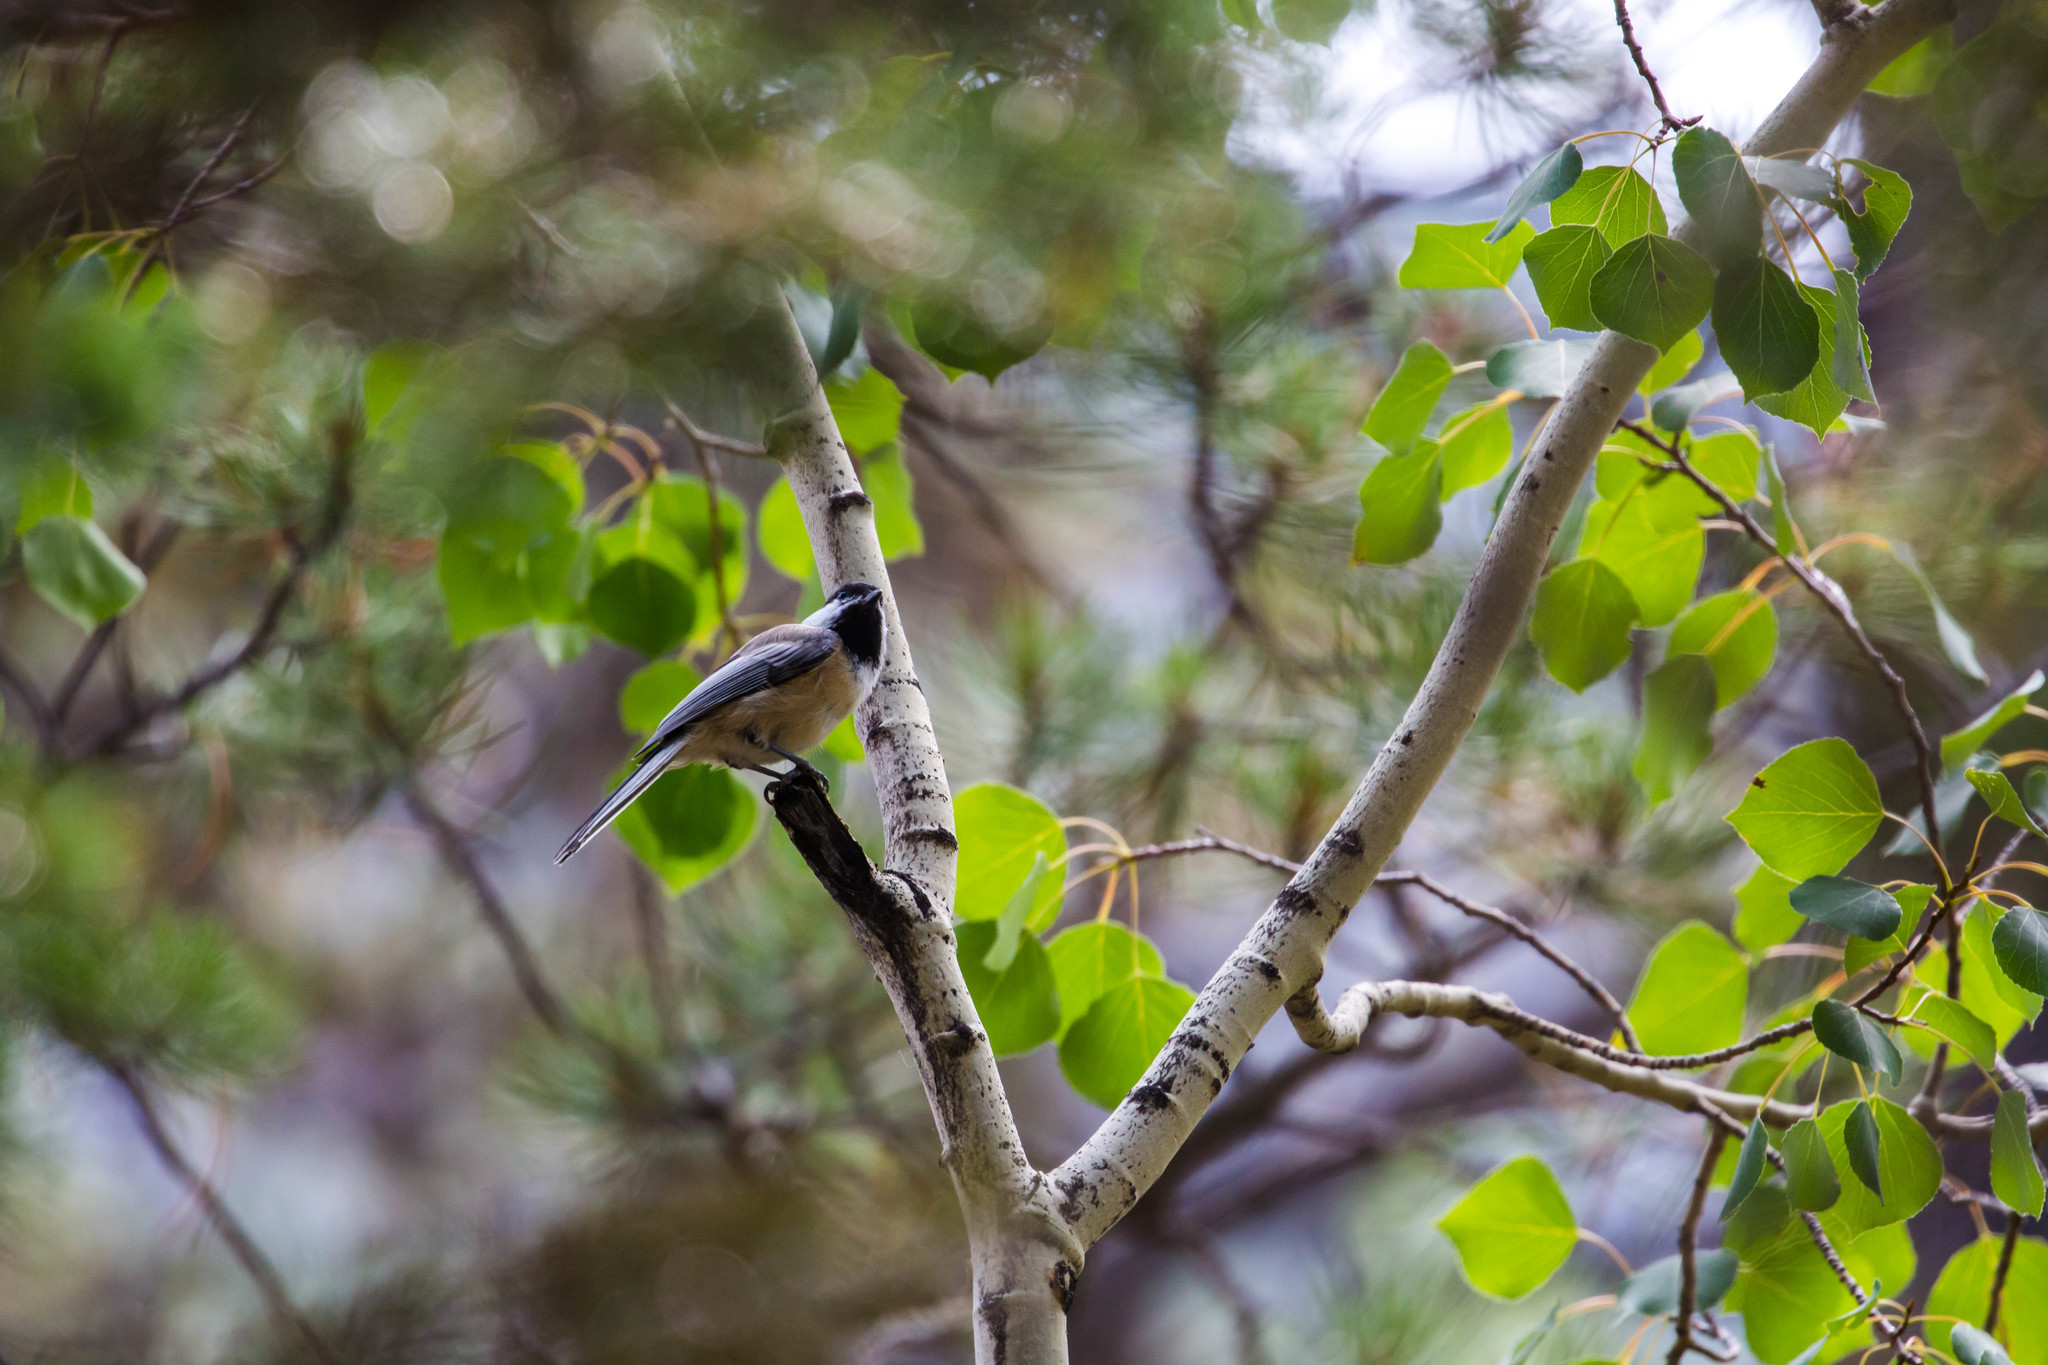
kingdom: Animalia
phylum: Chordata
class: Aves
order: Passeriformes
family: Paridae
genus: Poecile
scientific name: Poecile atricapillus
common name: Black-capped chickadee
